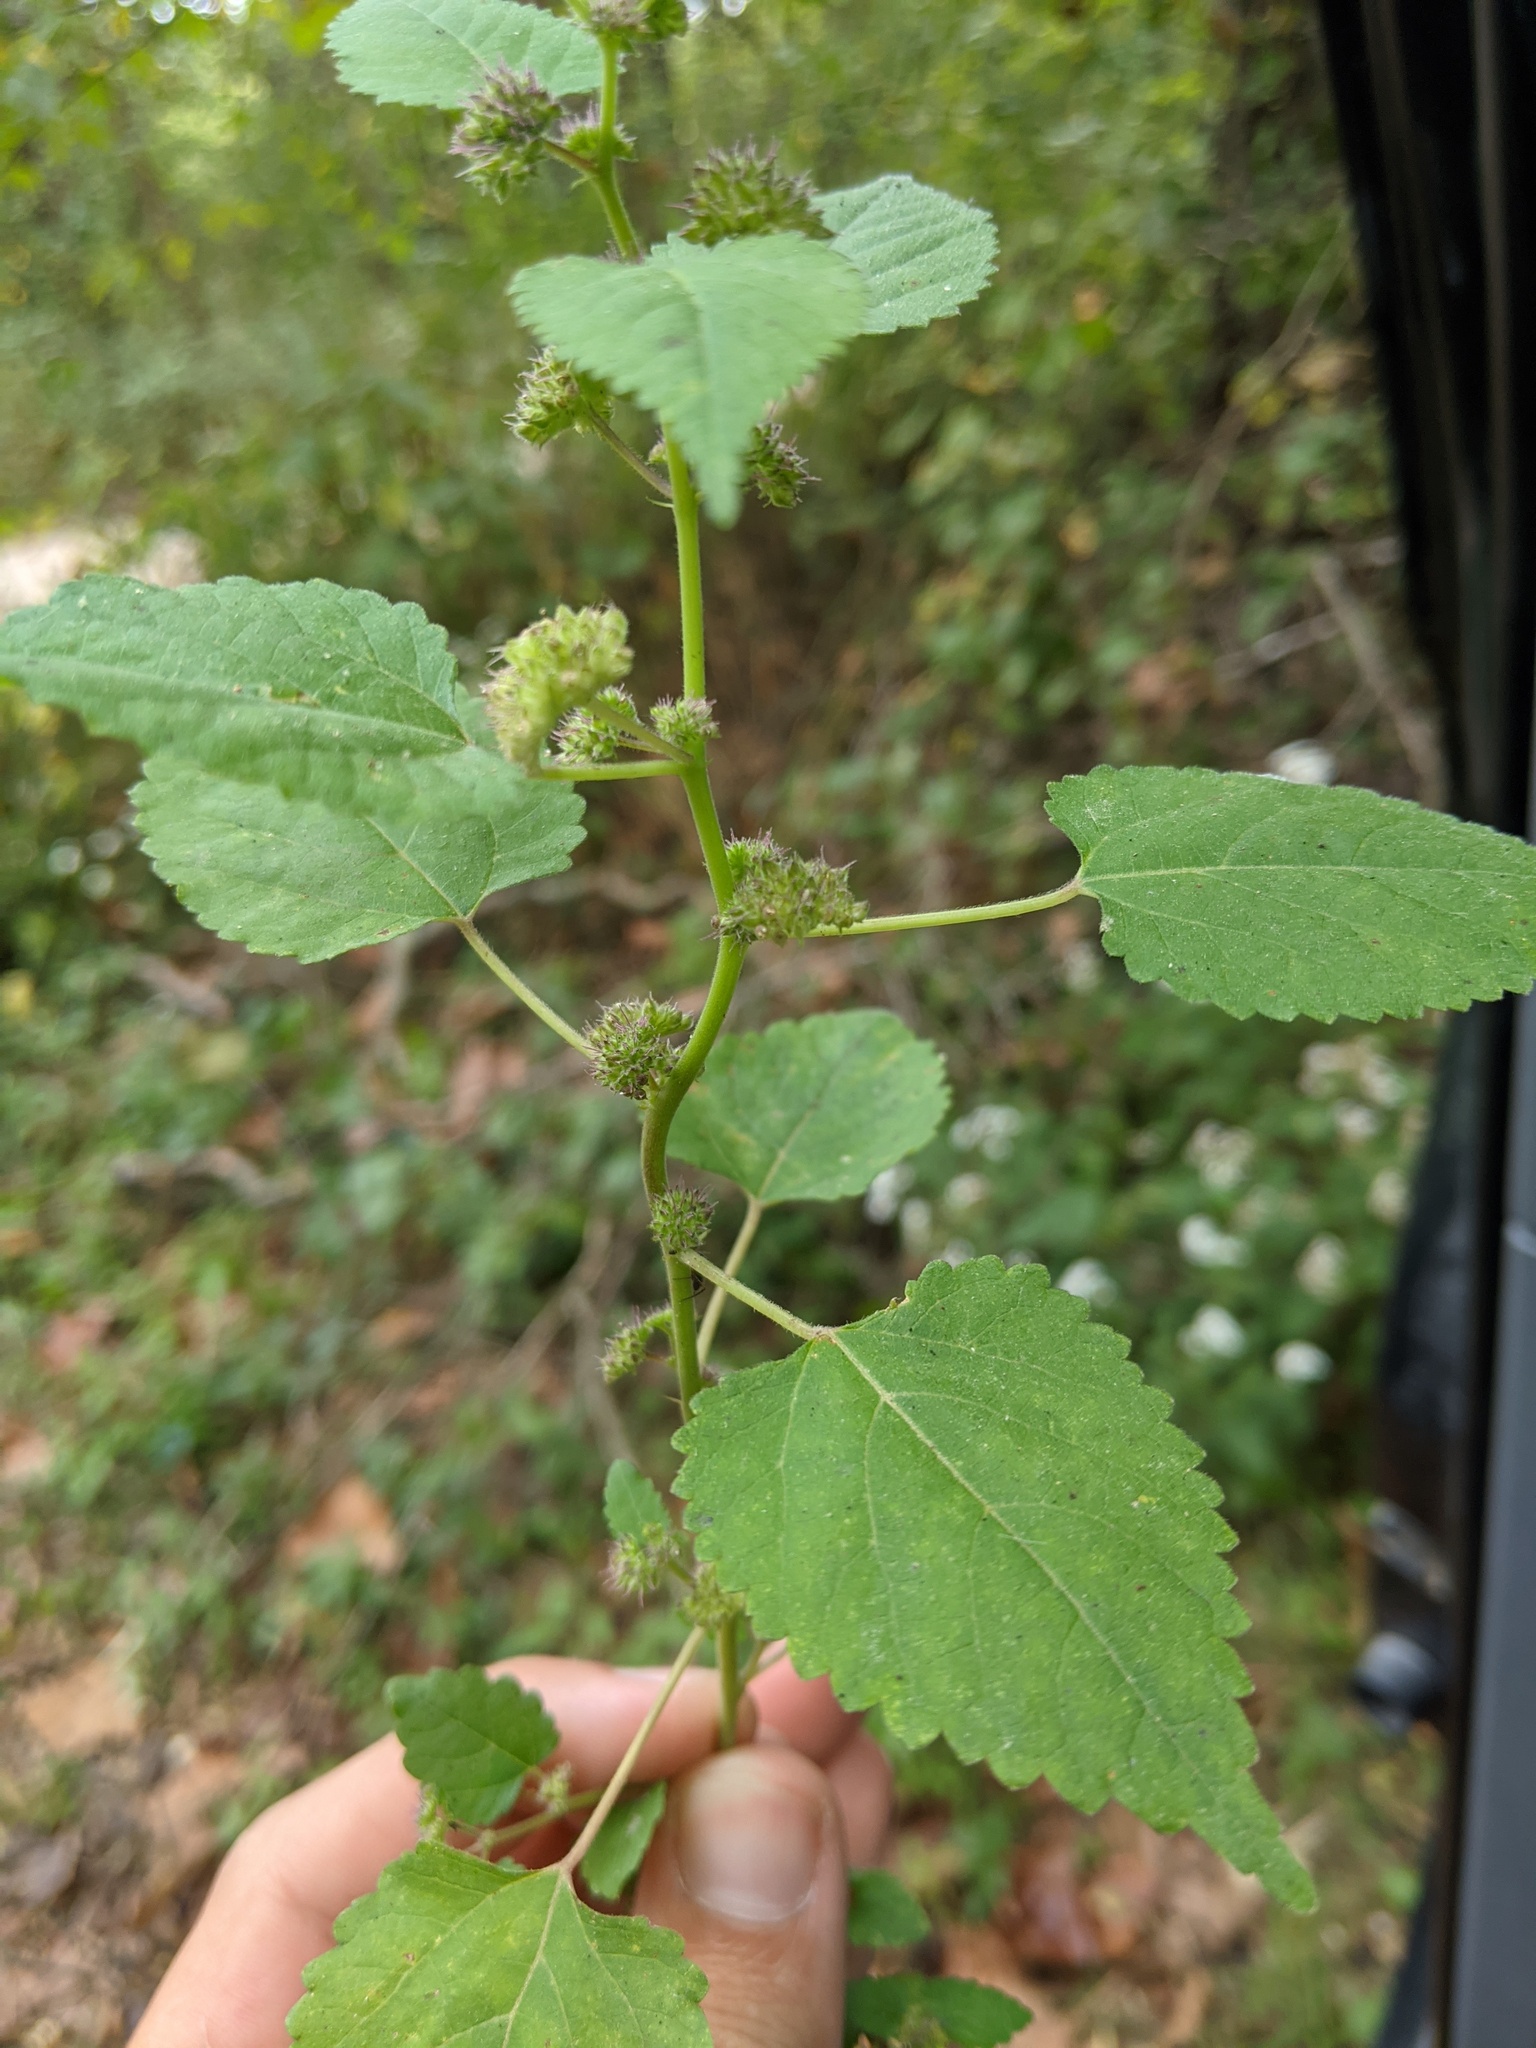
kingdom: Plantae
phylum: Tracheophyta
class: Magnoliopsida
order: Rosales
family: Moraceae
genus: Fatoua
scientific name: Fatoua villosa
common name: Hairy crabweed
